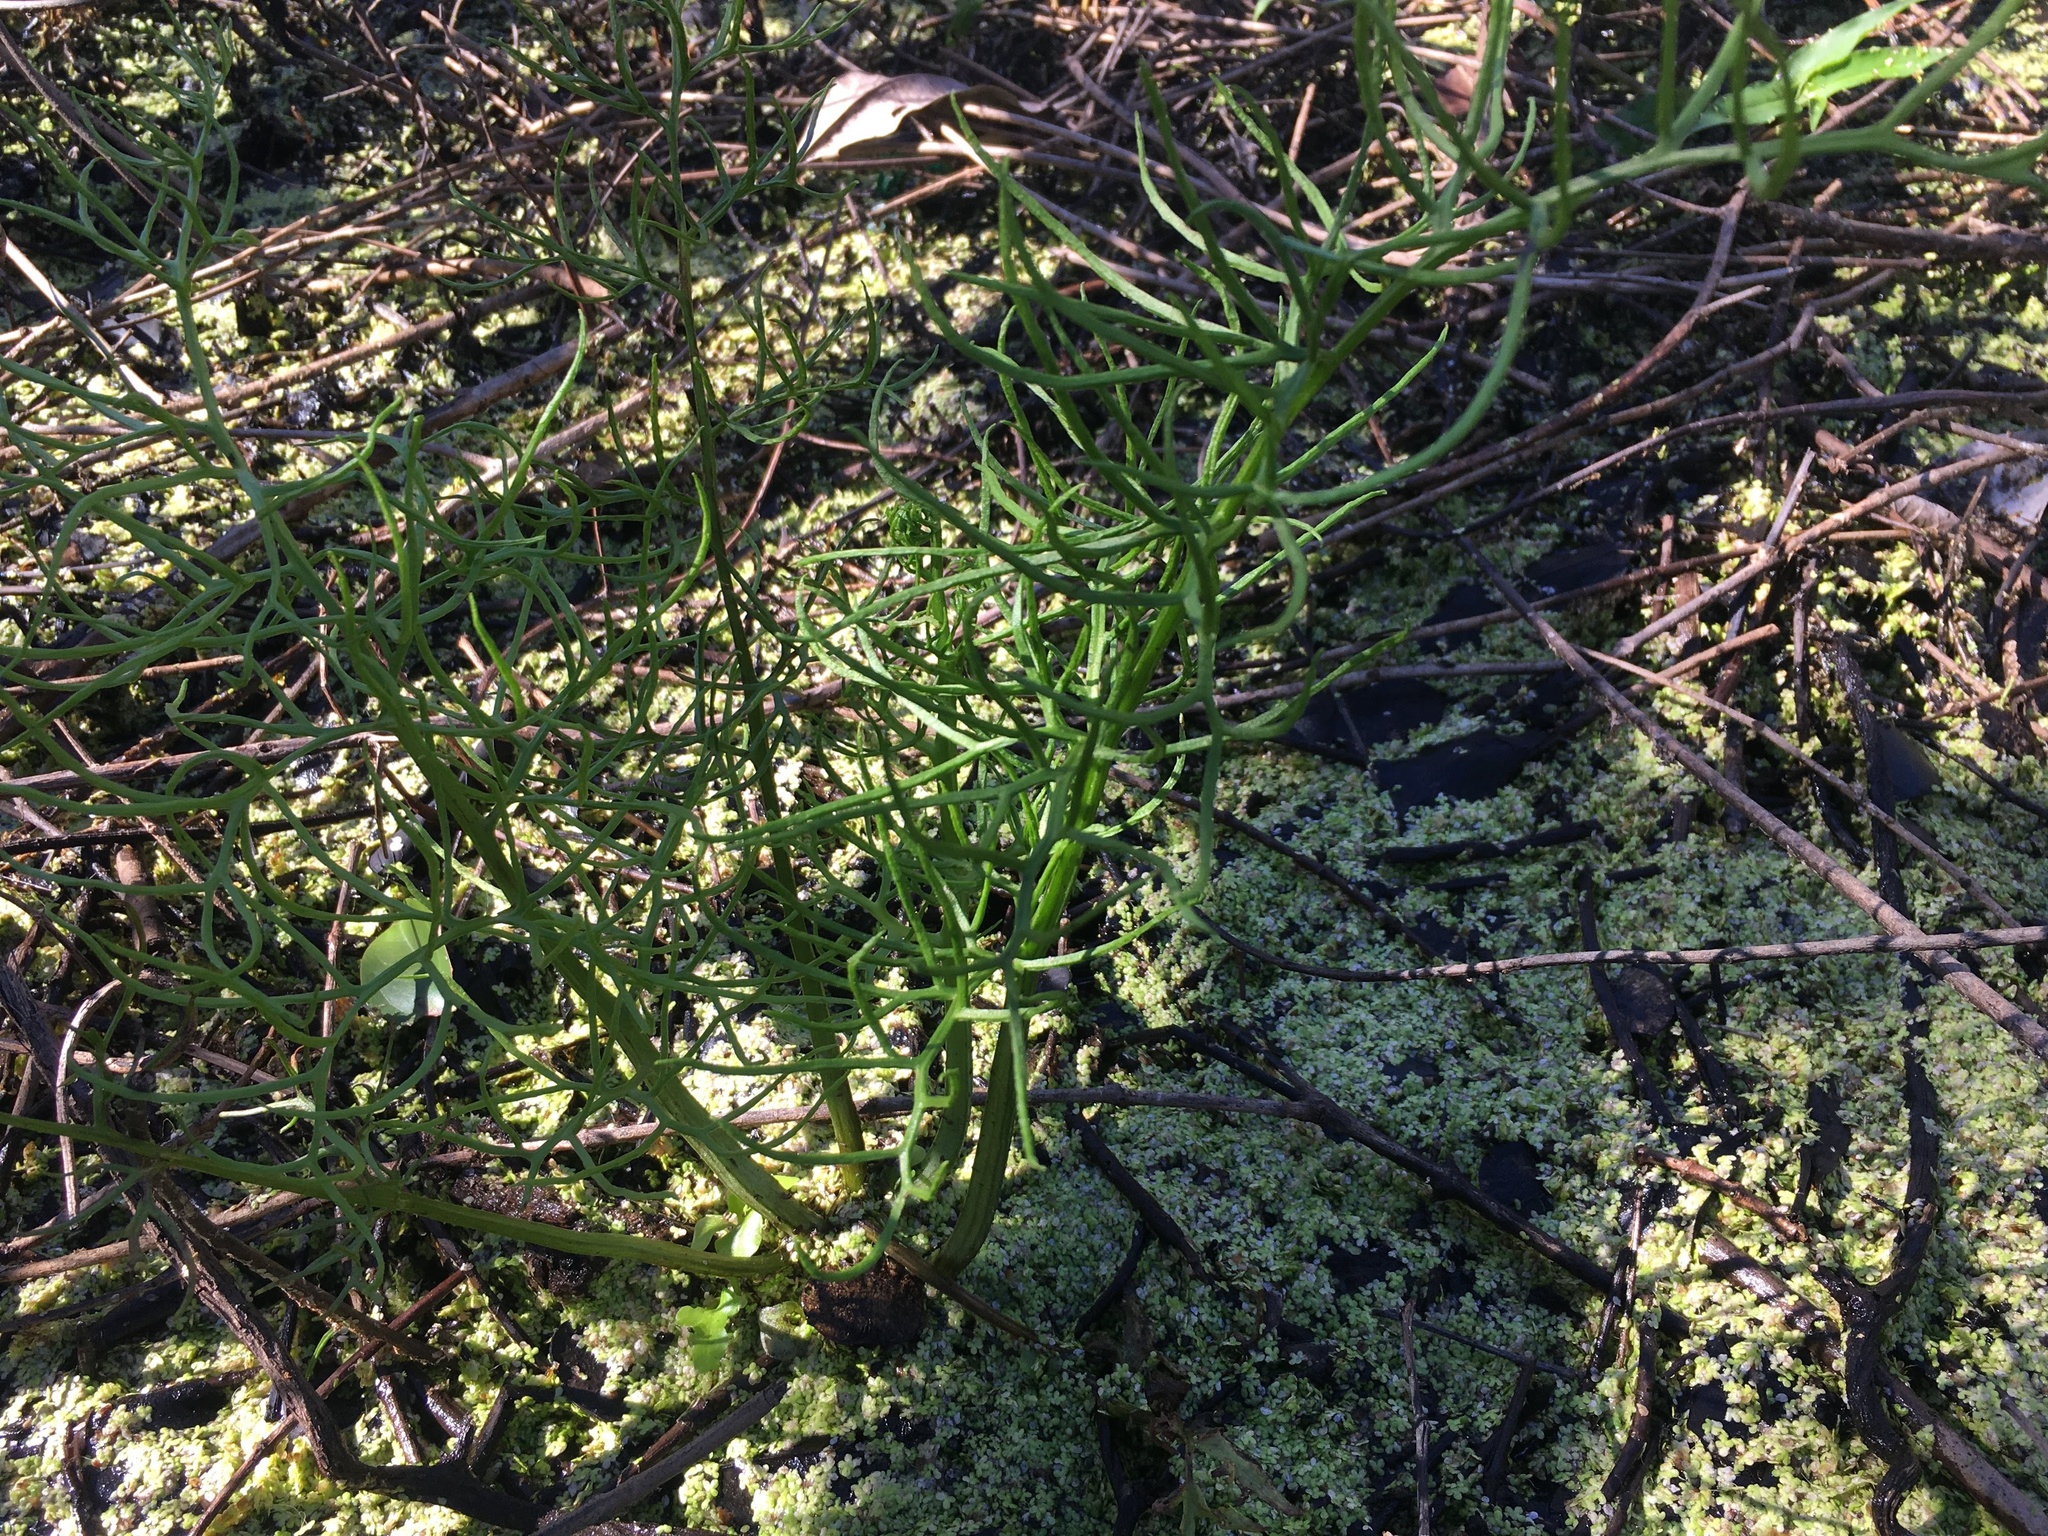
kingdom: Plantae
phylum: Tracheophyta
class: Polypodiopsida
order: Polypodiales
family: Pteridaceae
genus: Ceratopteris
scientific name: Ceratopteris thalictroides
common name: Water fern
